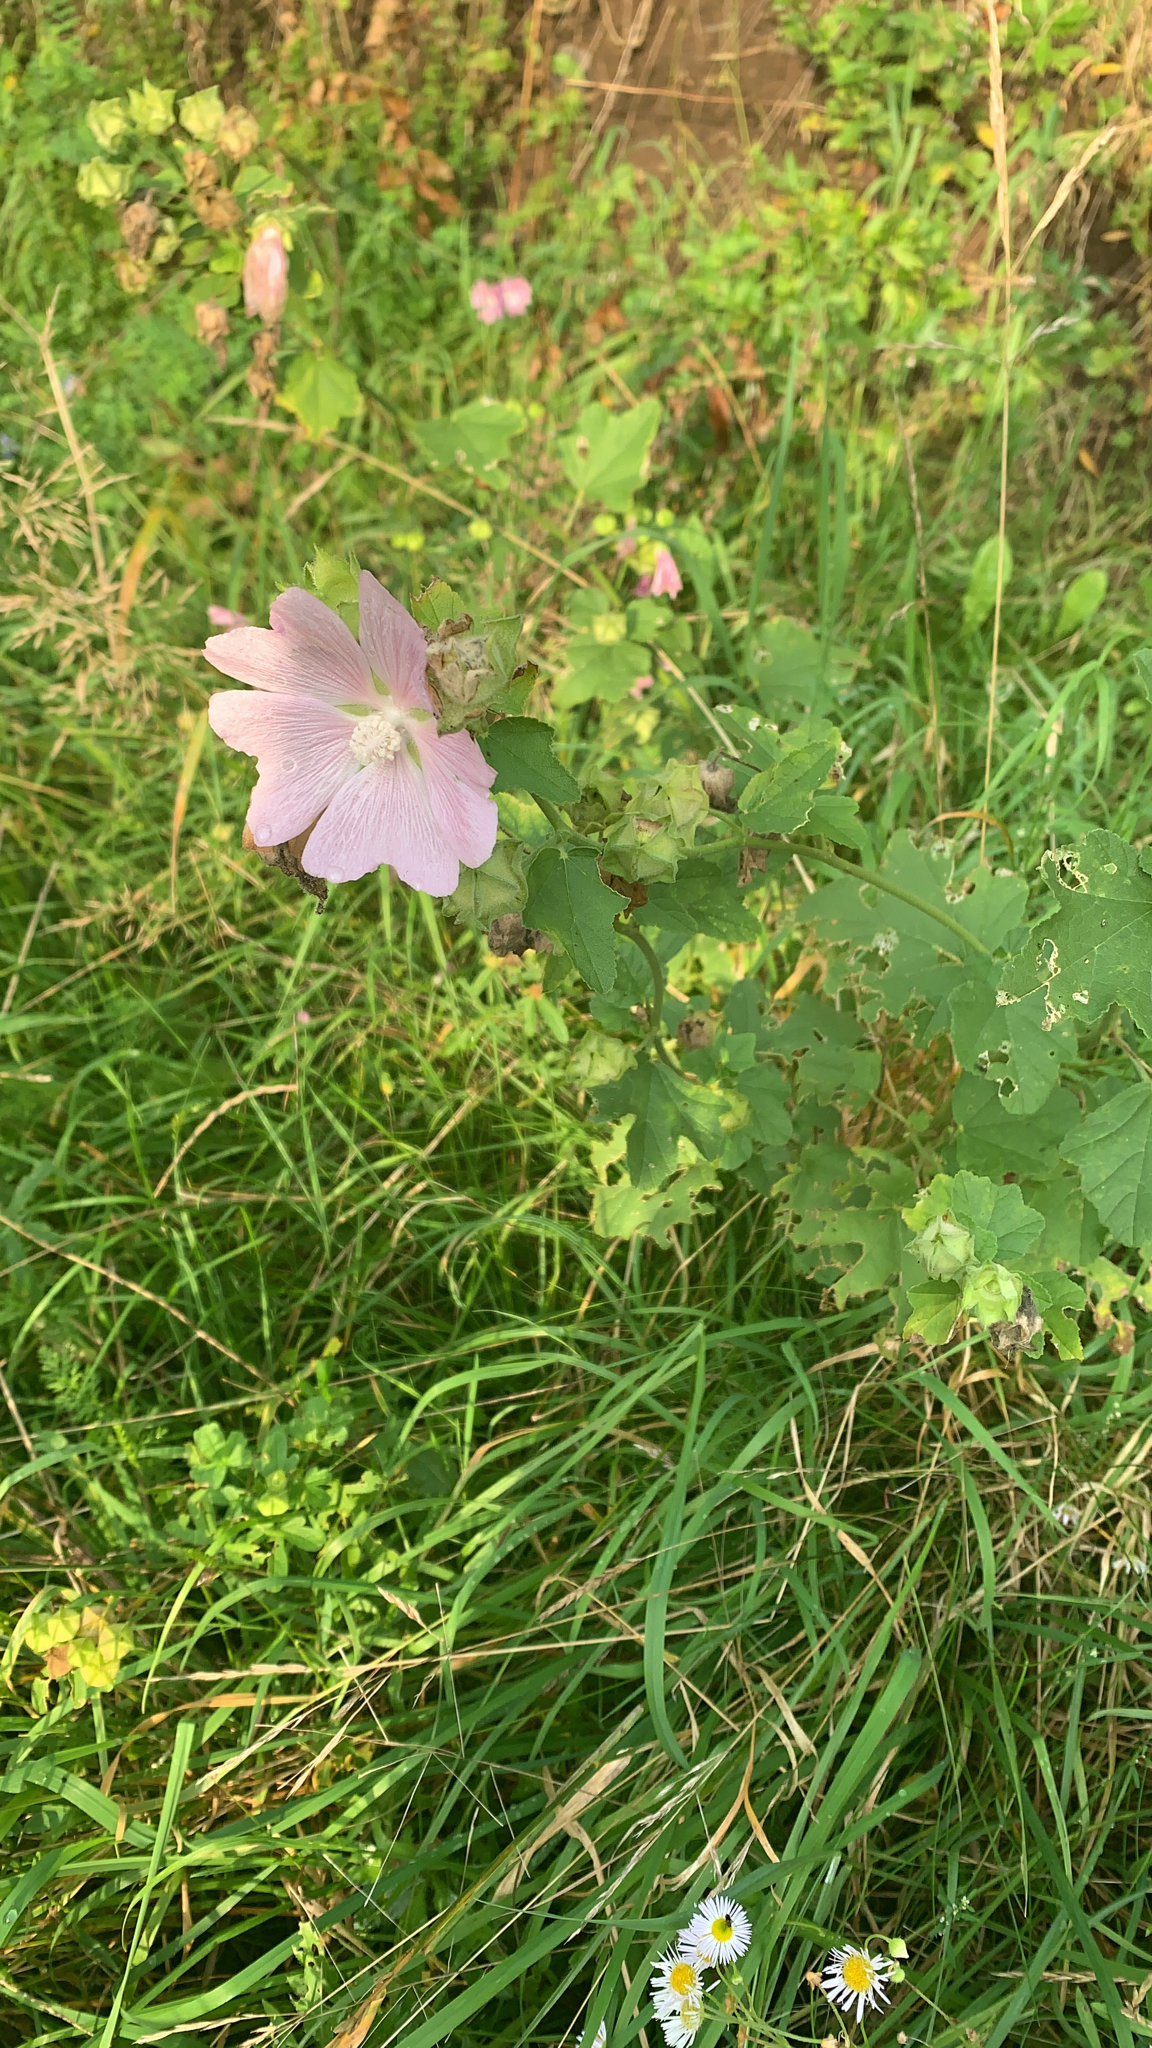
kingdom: Plantae
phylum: Tracheophyta
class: Magnoliopsida
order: Malvales
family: Malvaceae
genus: Malva
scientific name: Malva thuringiaca
